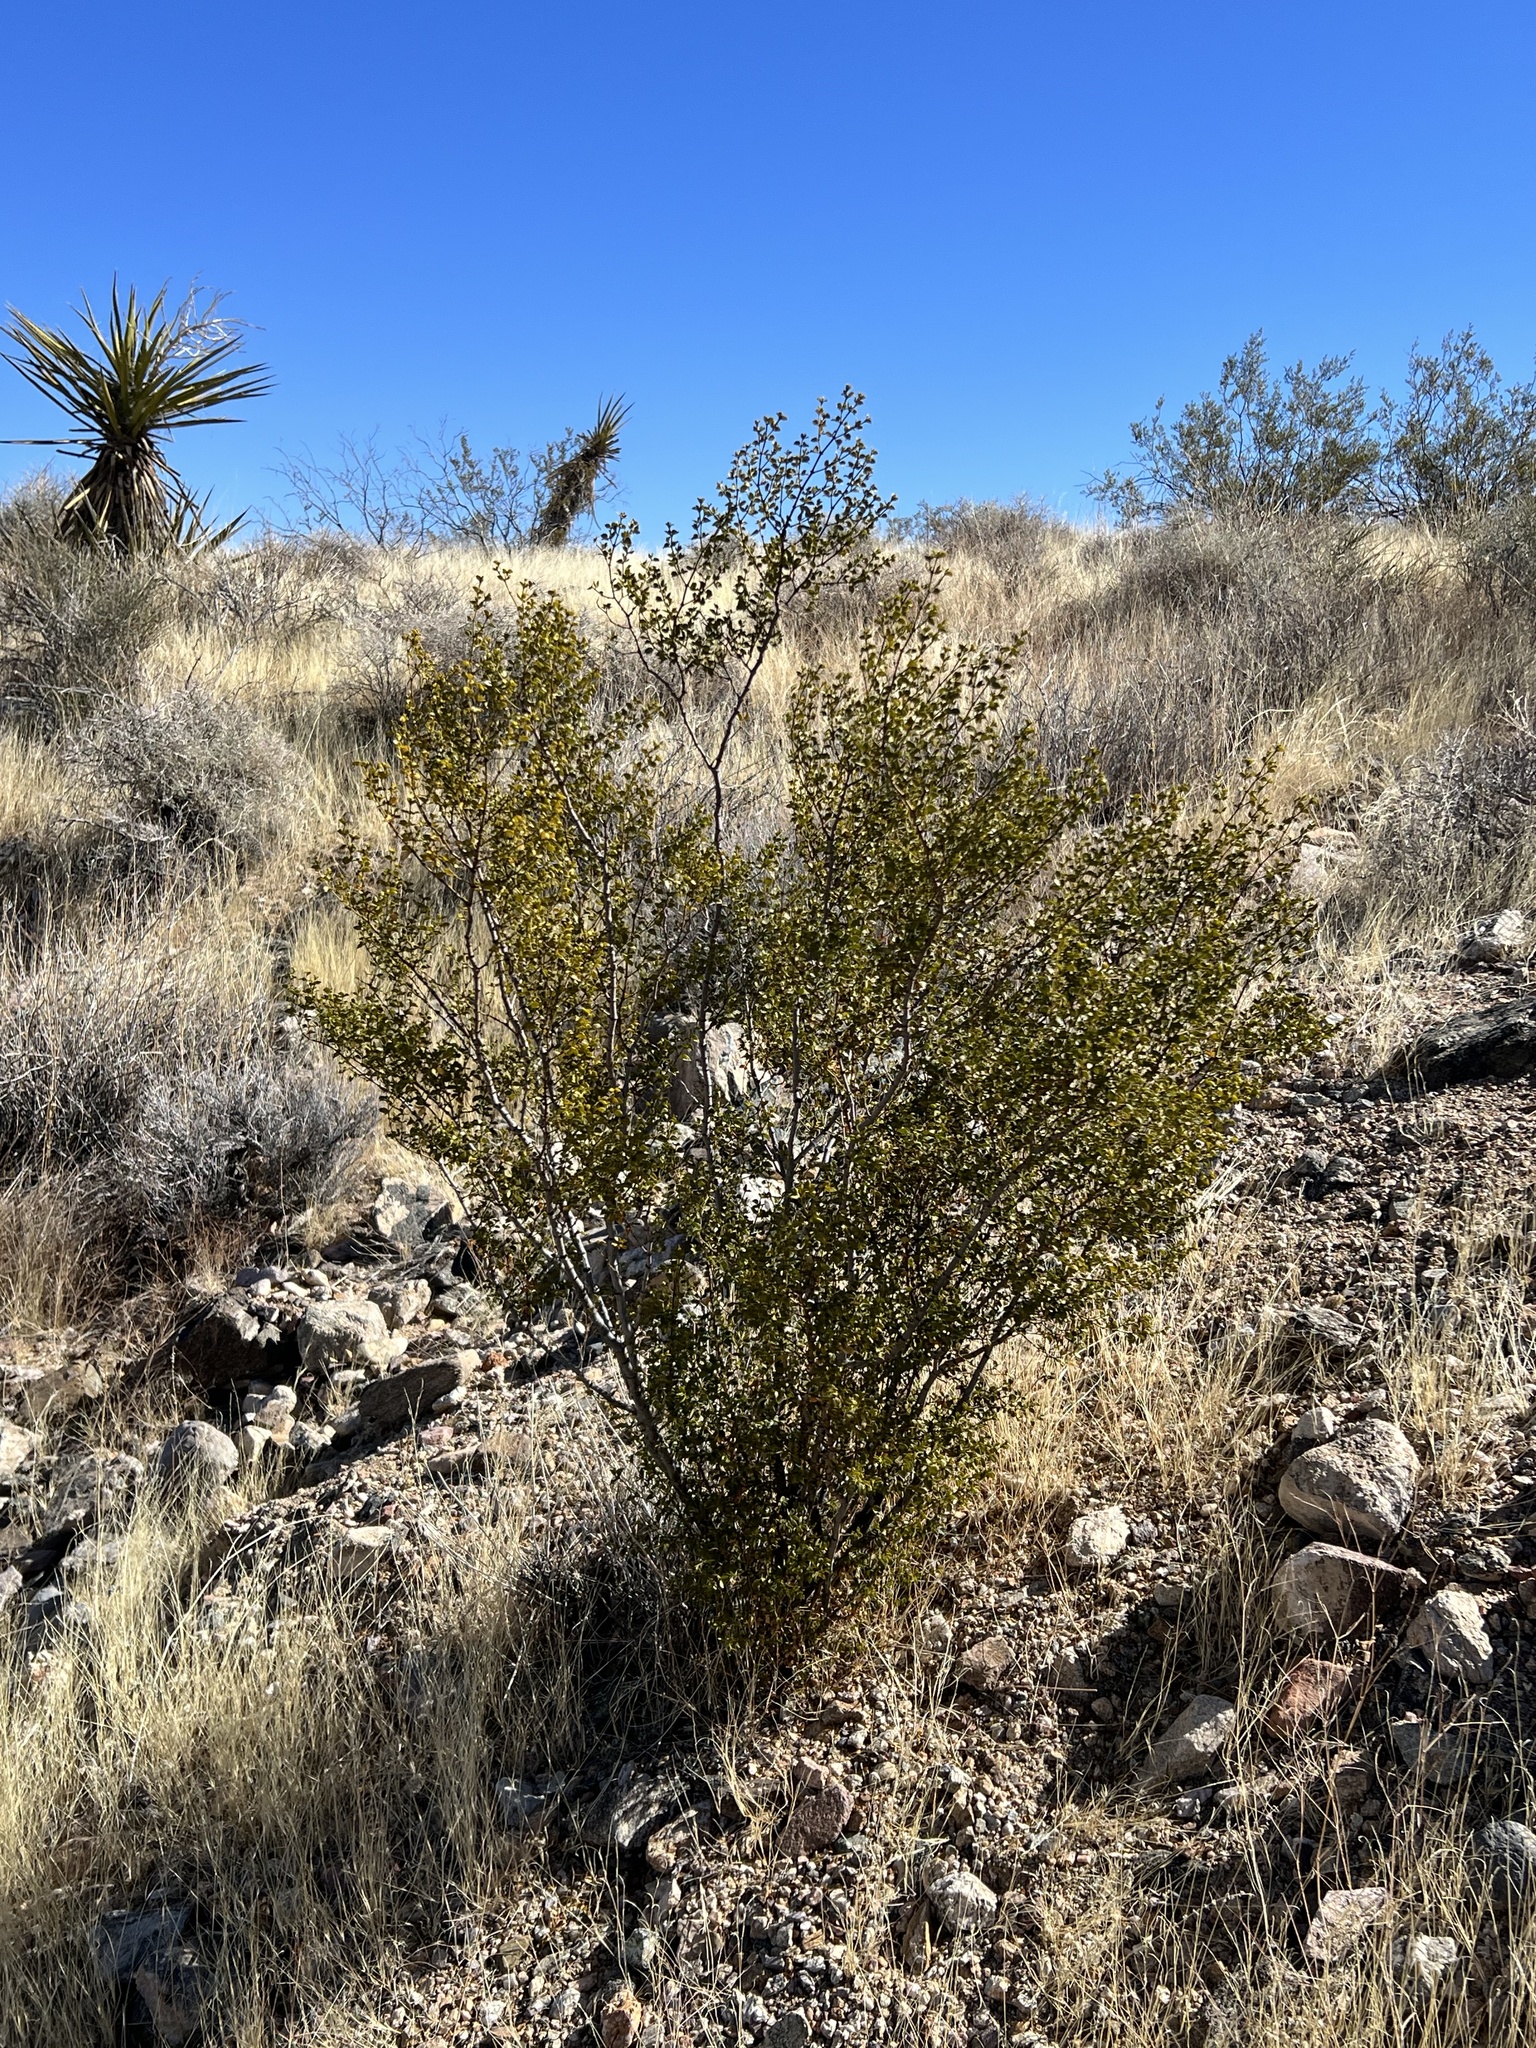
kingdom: Plantae
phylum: Tracheophyta
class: Magnoliopsida
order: Zygophyllales
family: Zygophyllaceae
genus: Larrea
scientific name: Larrea tridentata
